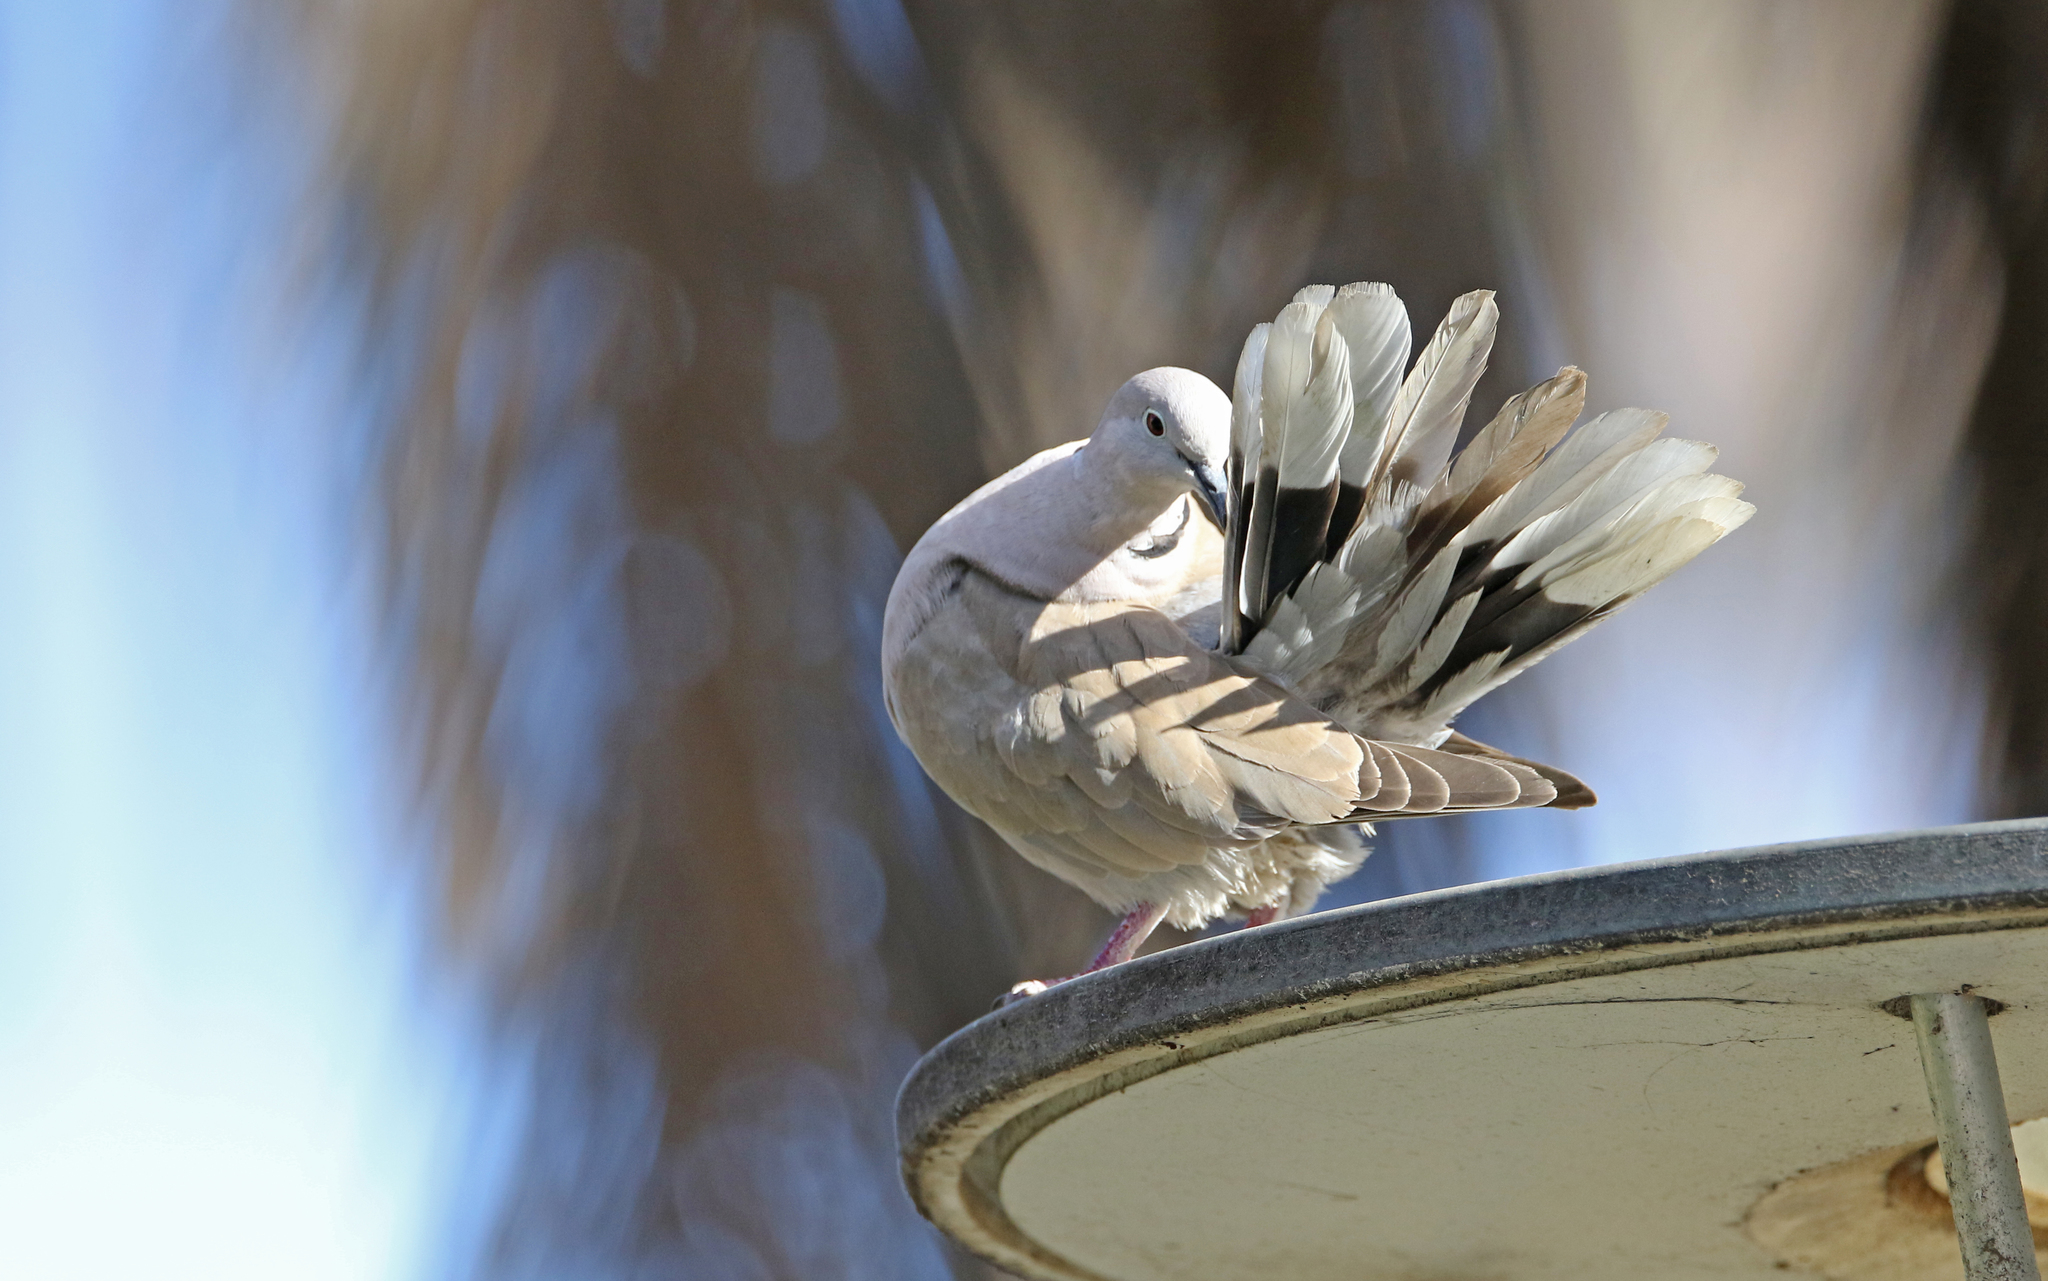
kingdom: Animalia
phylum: Chordata
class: Aves
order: Columbiformes
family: Columbidae
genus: Streptopelia
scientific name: Streptopelia decaocto
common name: Eurasian collared dove
